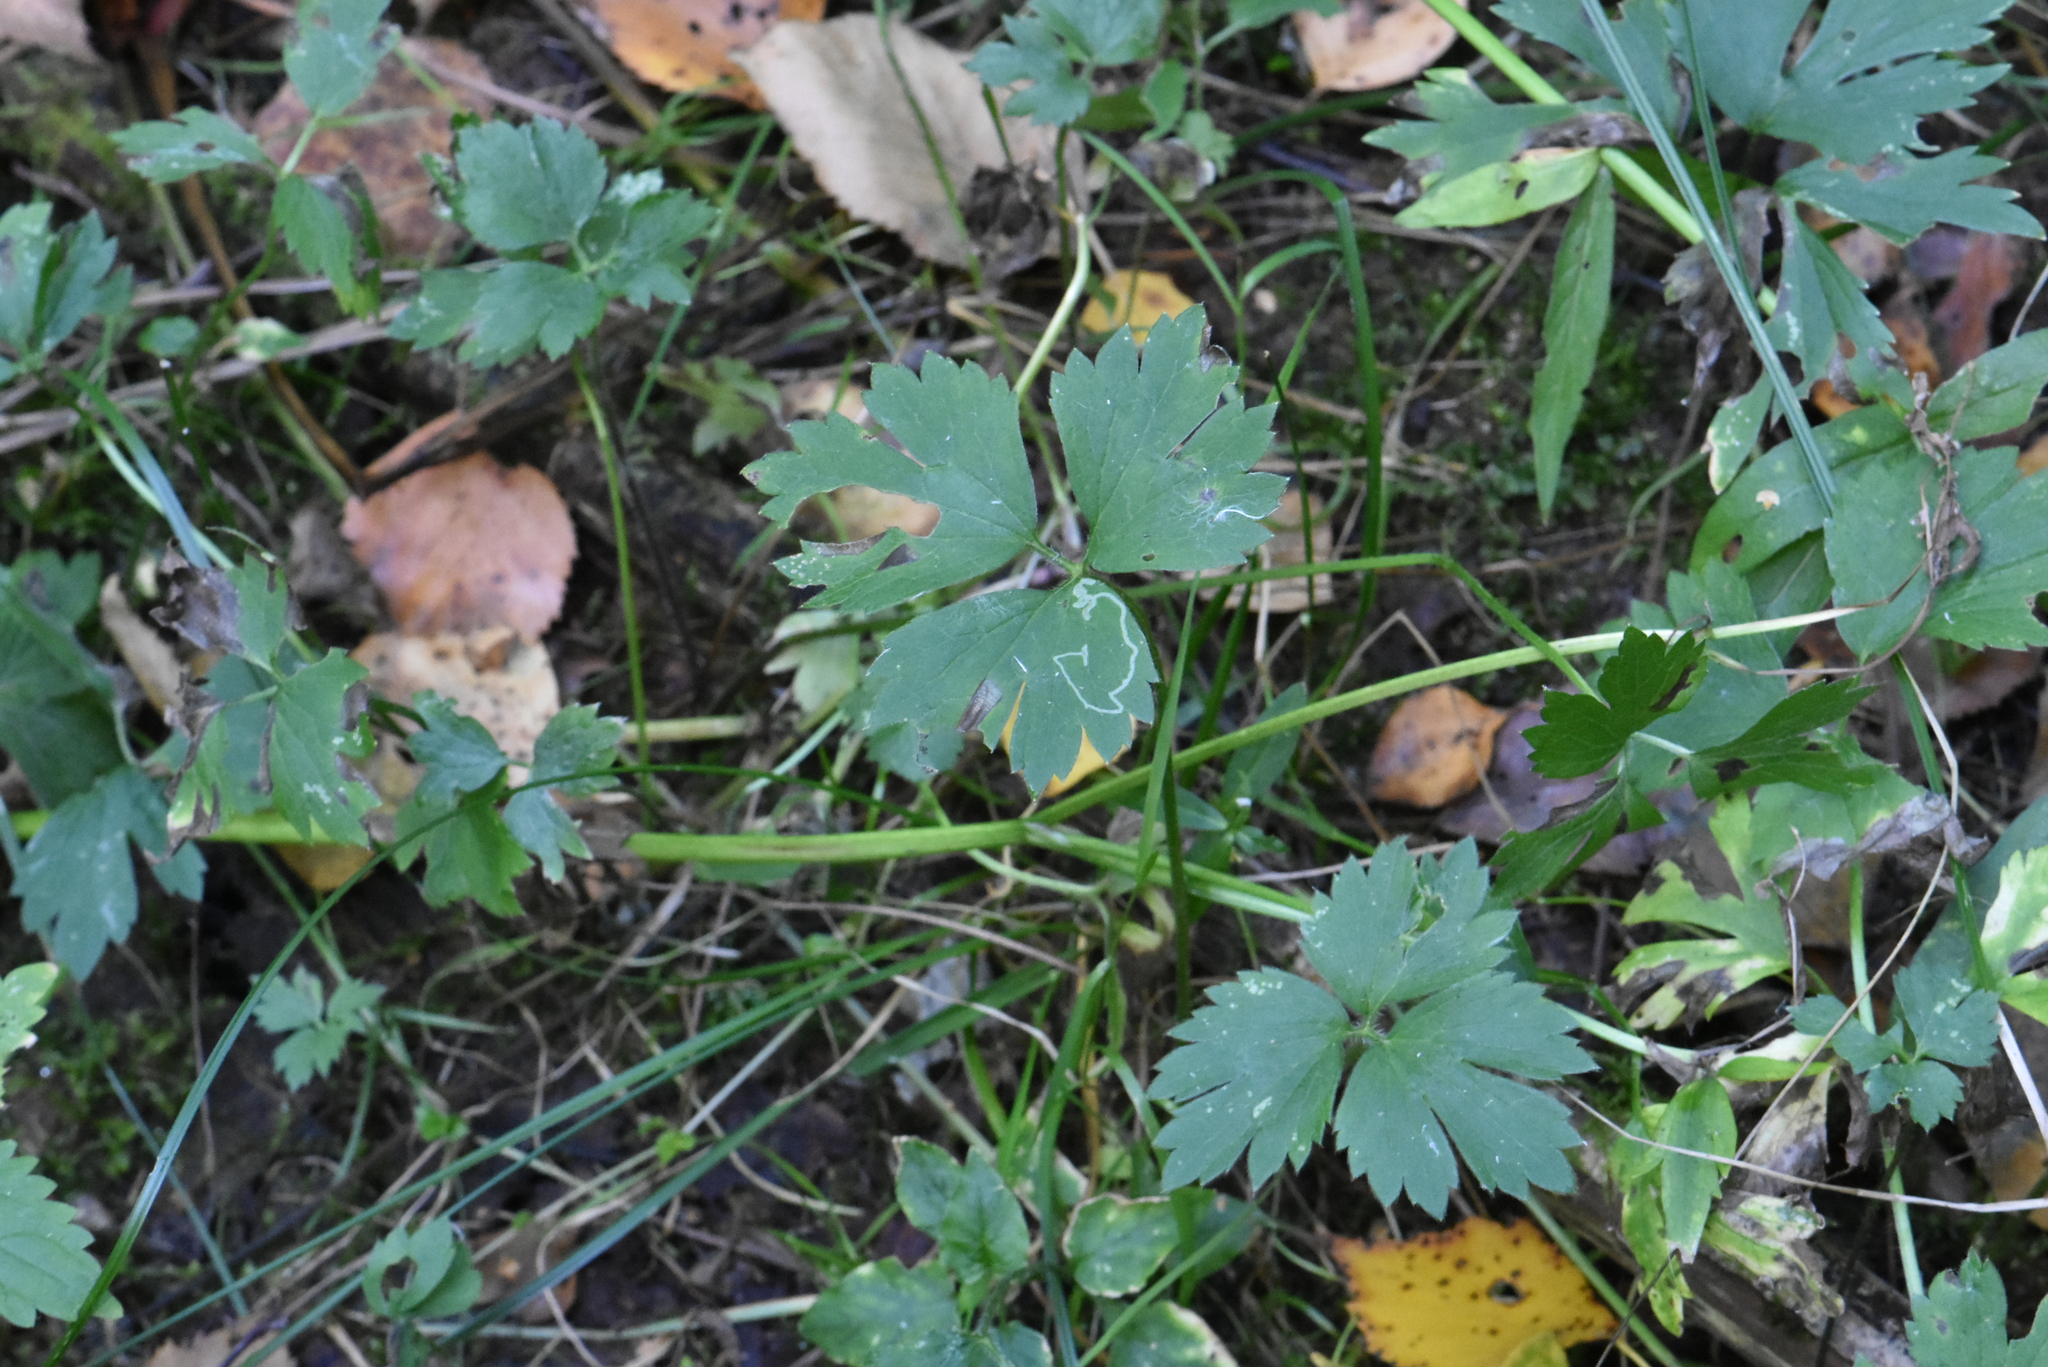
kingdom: Plantae
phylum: Tracheophyta
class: Magnoliopsida
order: Ranunculales
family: Ranunculaceae
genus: Ranunculus
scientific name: Ranunculus repens
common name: Creeping buttercup
